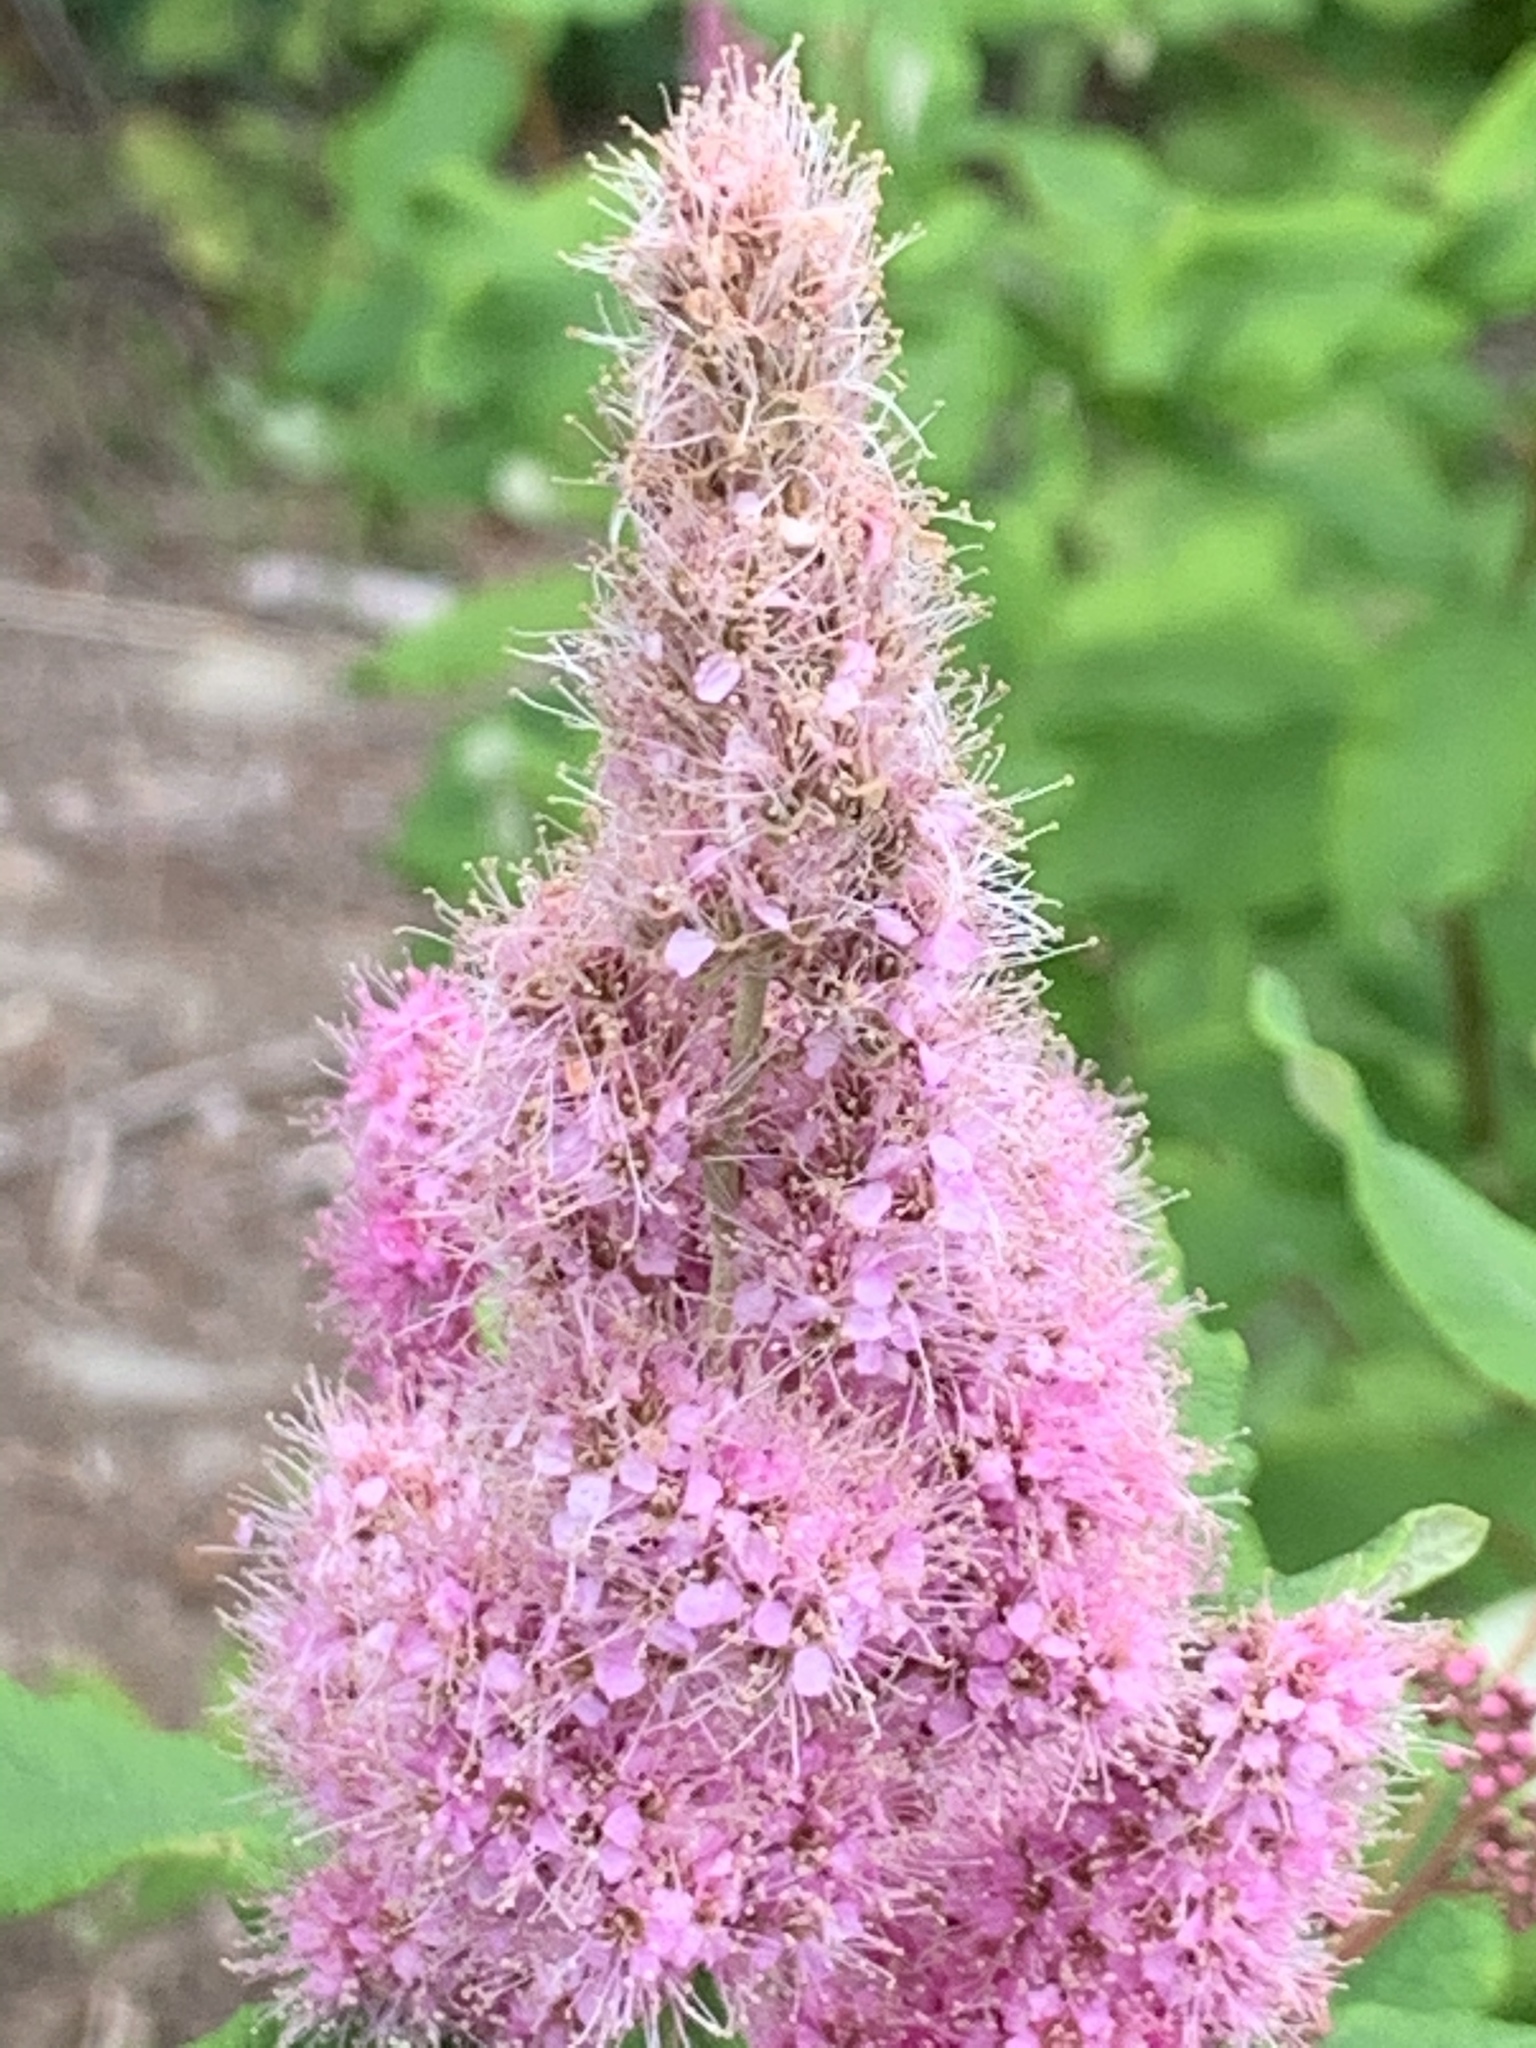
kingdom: Plantae
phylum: Tracheophyta
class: Magnoliopsida
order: Rosales
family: Rosaceae
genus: Spiraea
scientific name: Spiraea douglasii
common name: Steeplebush
